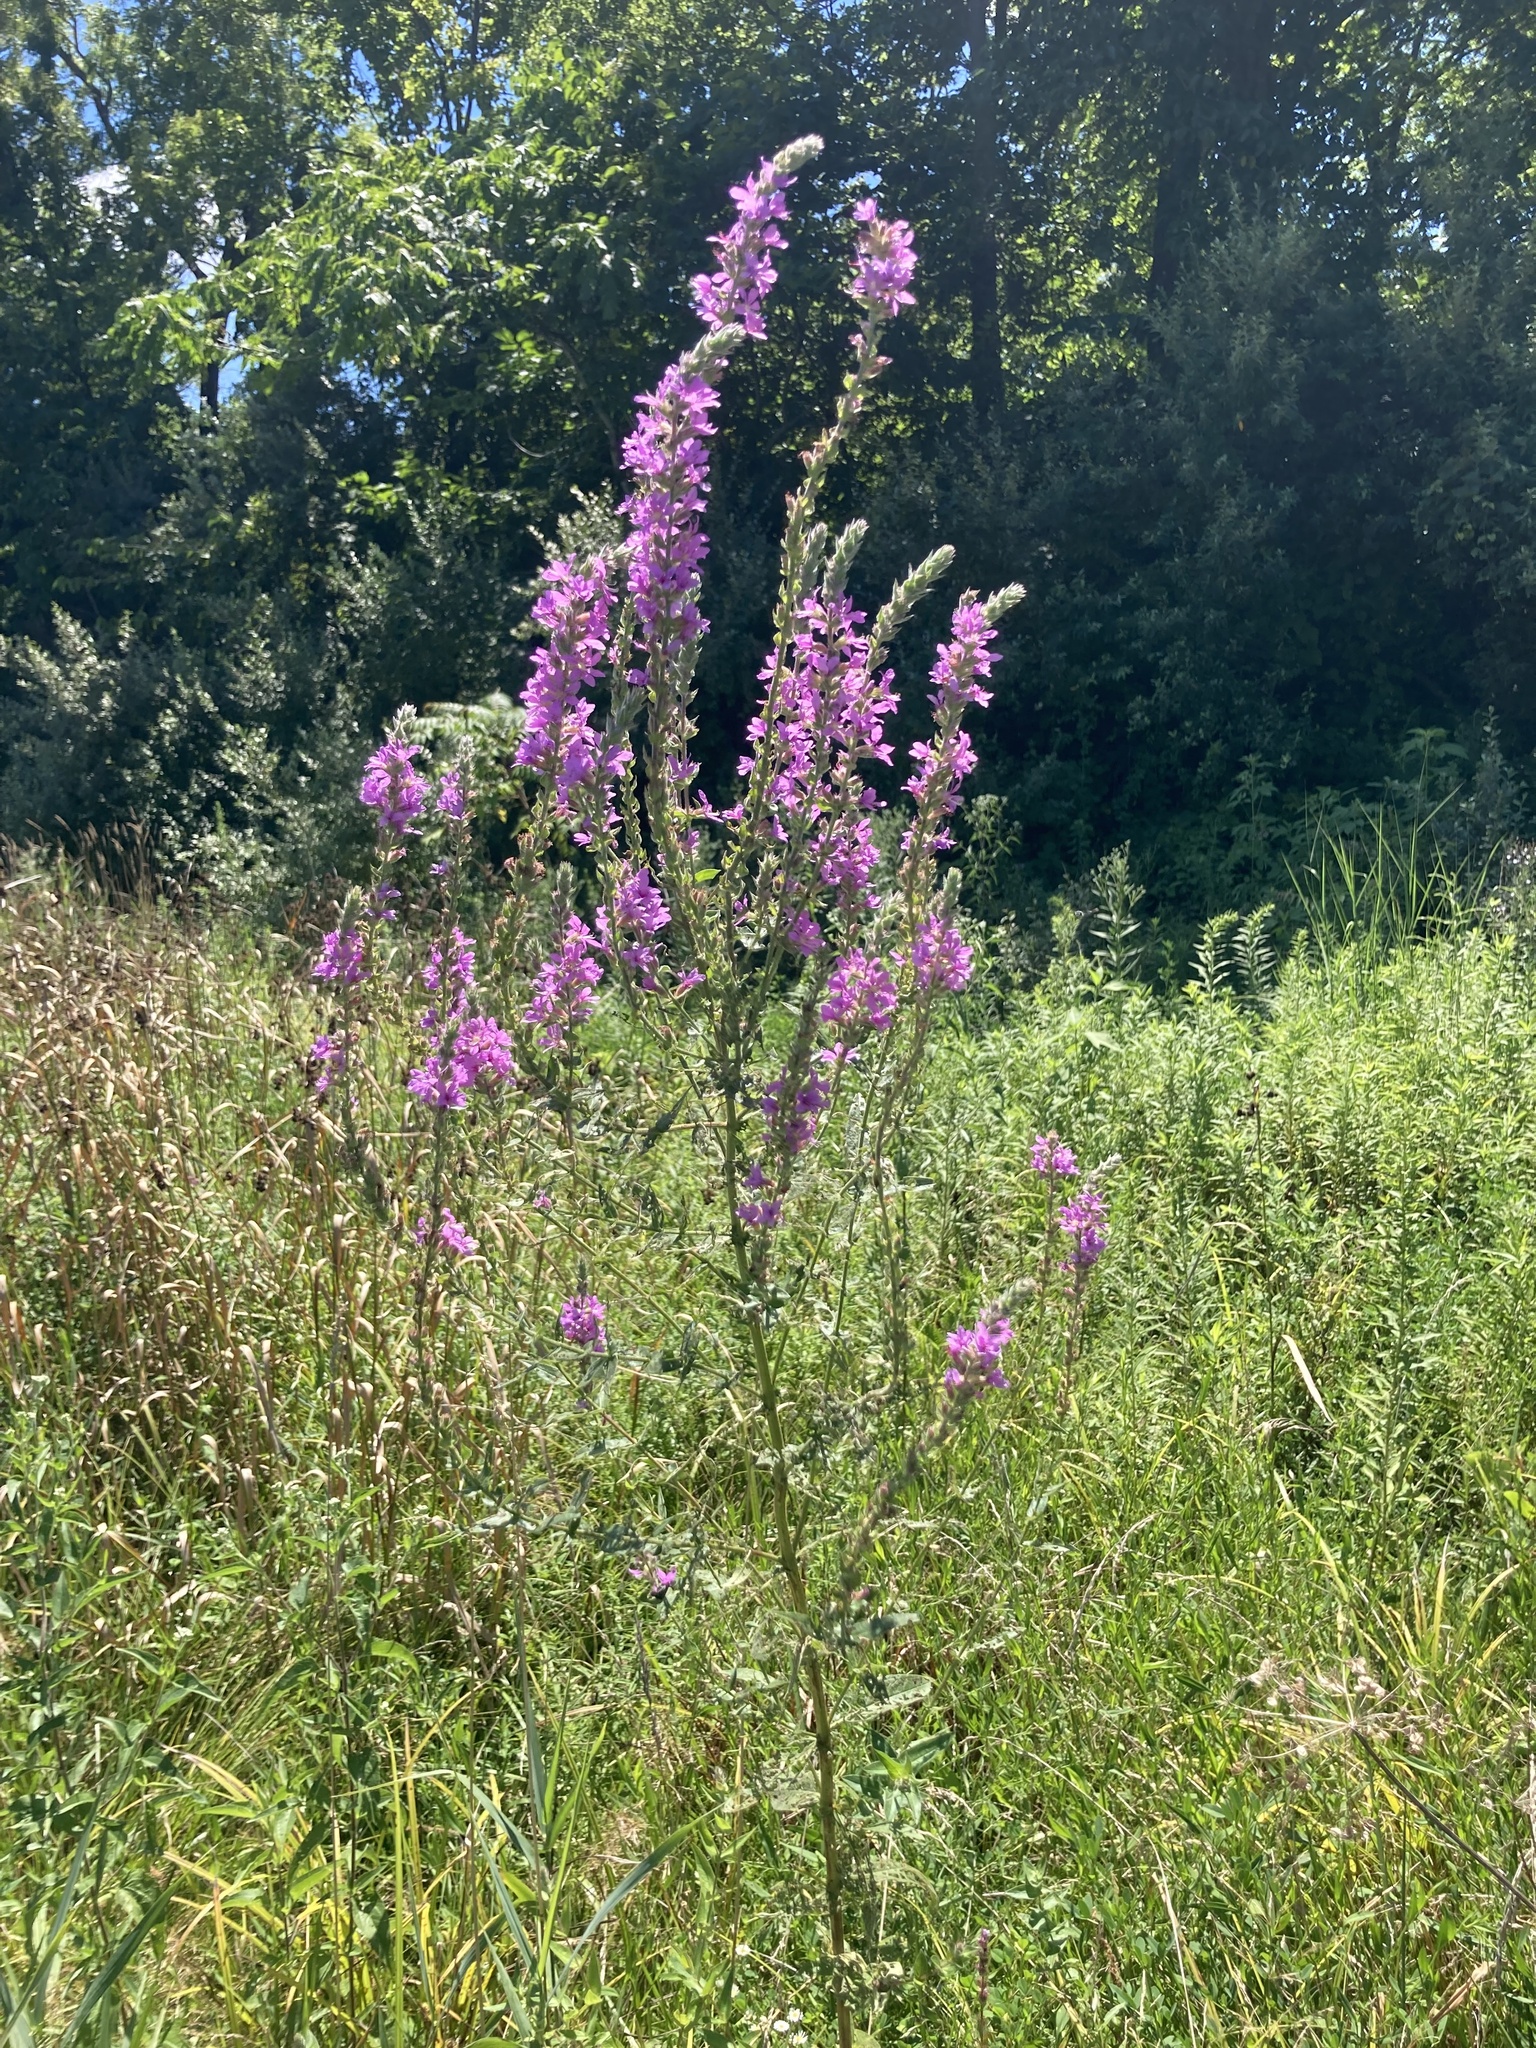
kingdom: Plantae
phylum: Tracheophyta
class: Magnoliopsida
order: Myrtales
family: Lythraceae
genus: Lythrum
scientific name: Lythrum salicaria
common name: Purple loosestrife
